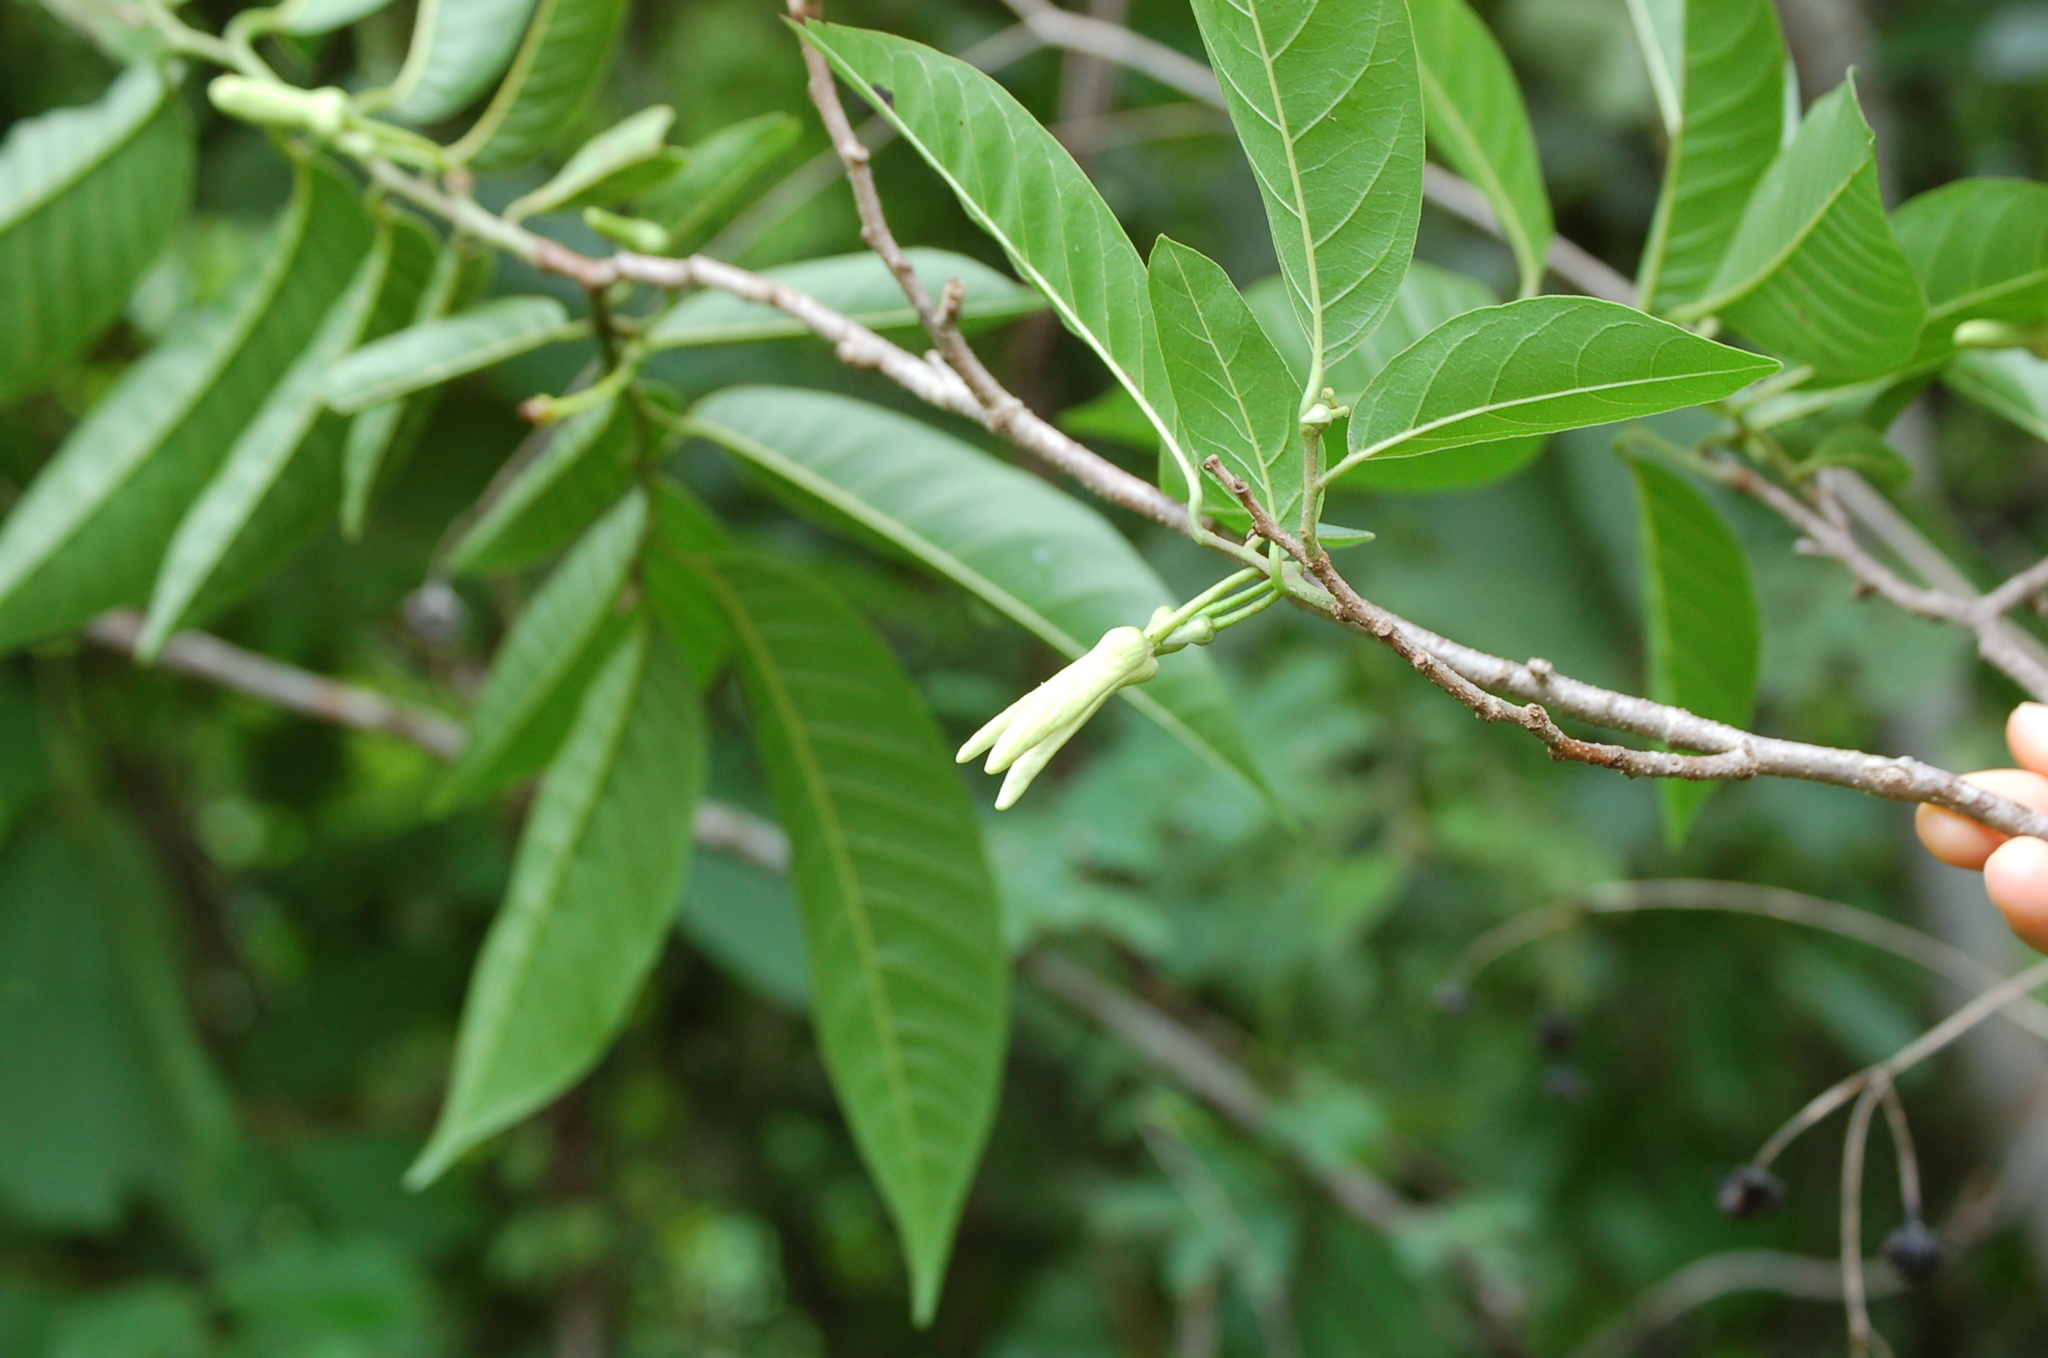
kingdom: Plantae
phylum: Tracheophyta
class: Magnoliopsida
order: Magnoliales
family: Annonaceae
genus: Annona
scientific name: Annona reticulata
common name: Custard apple
